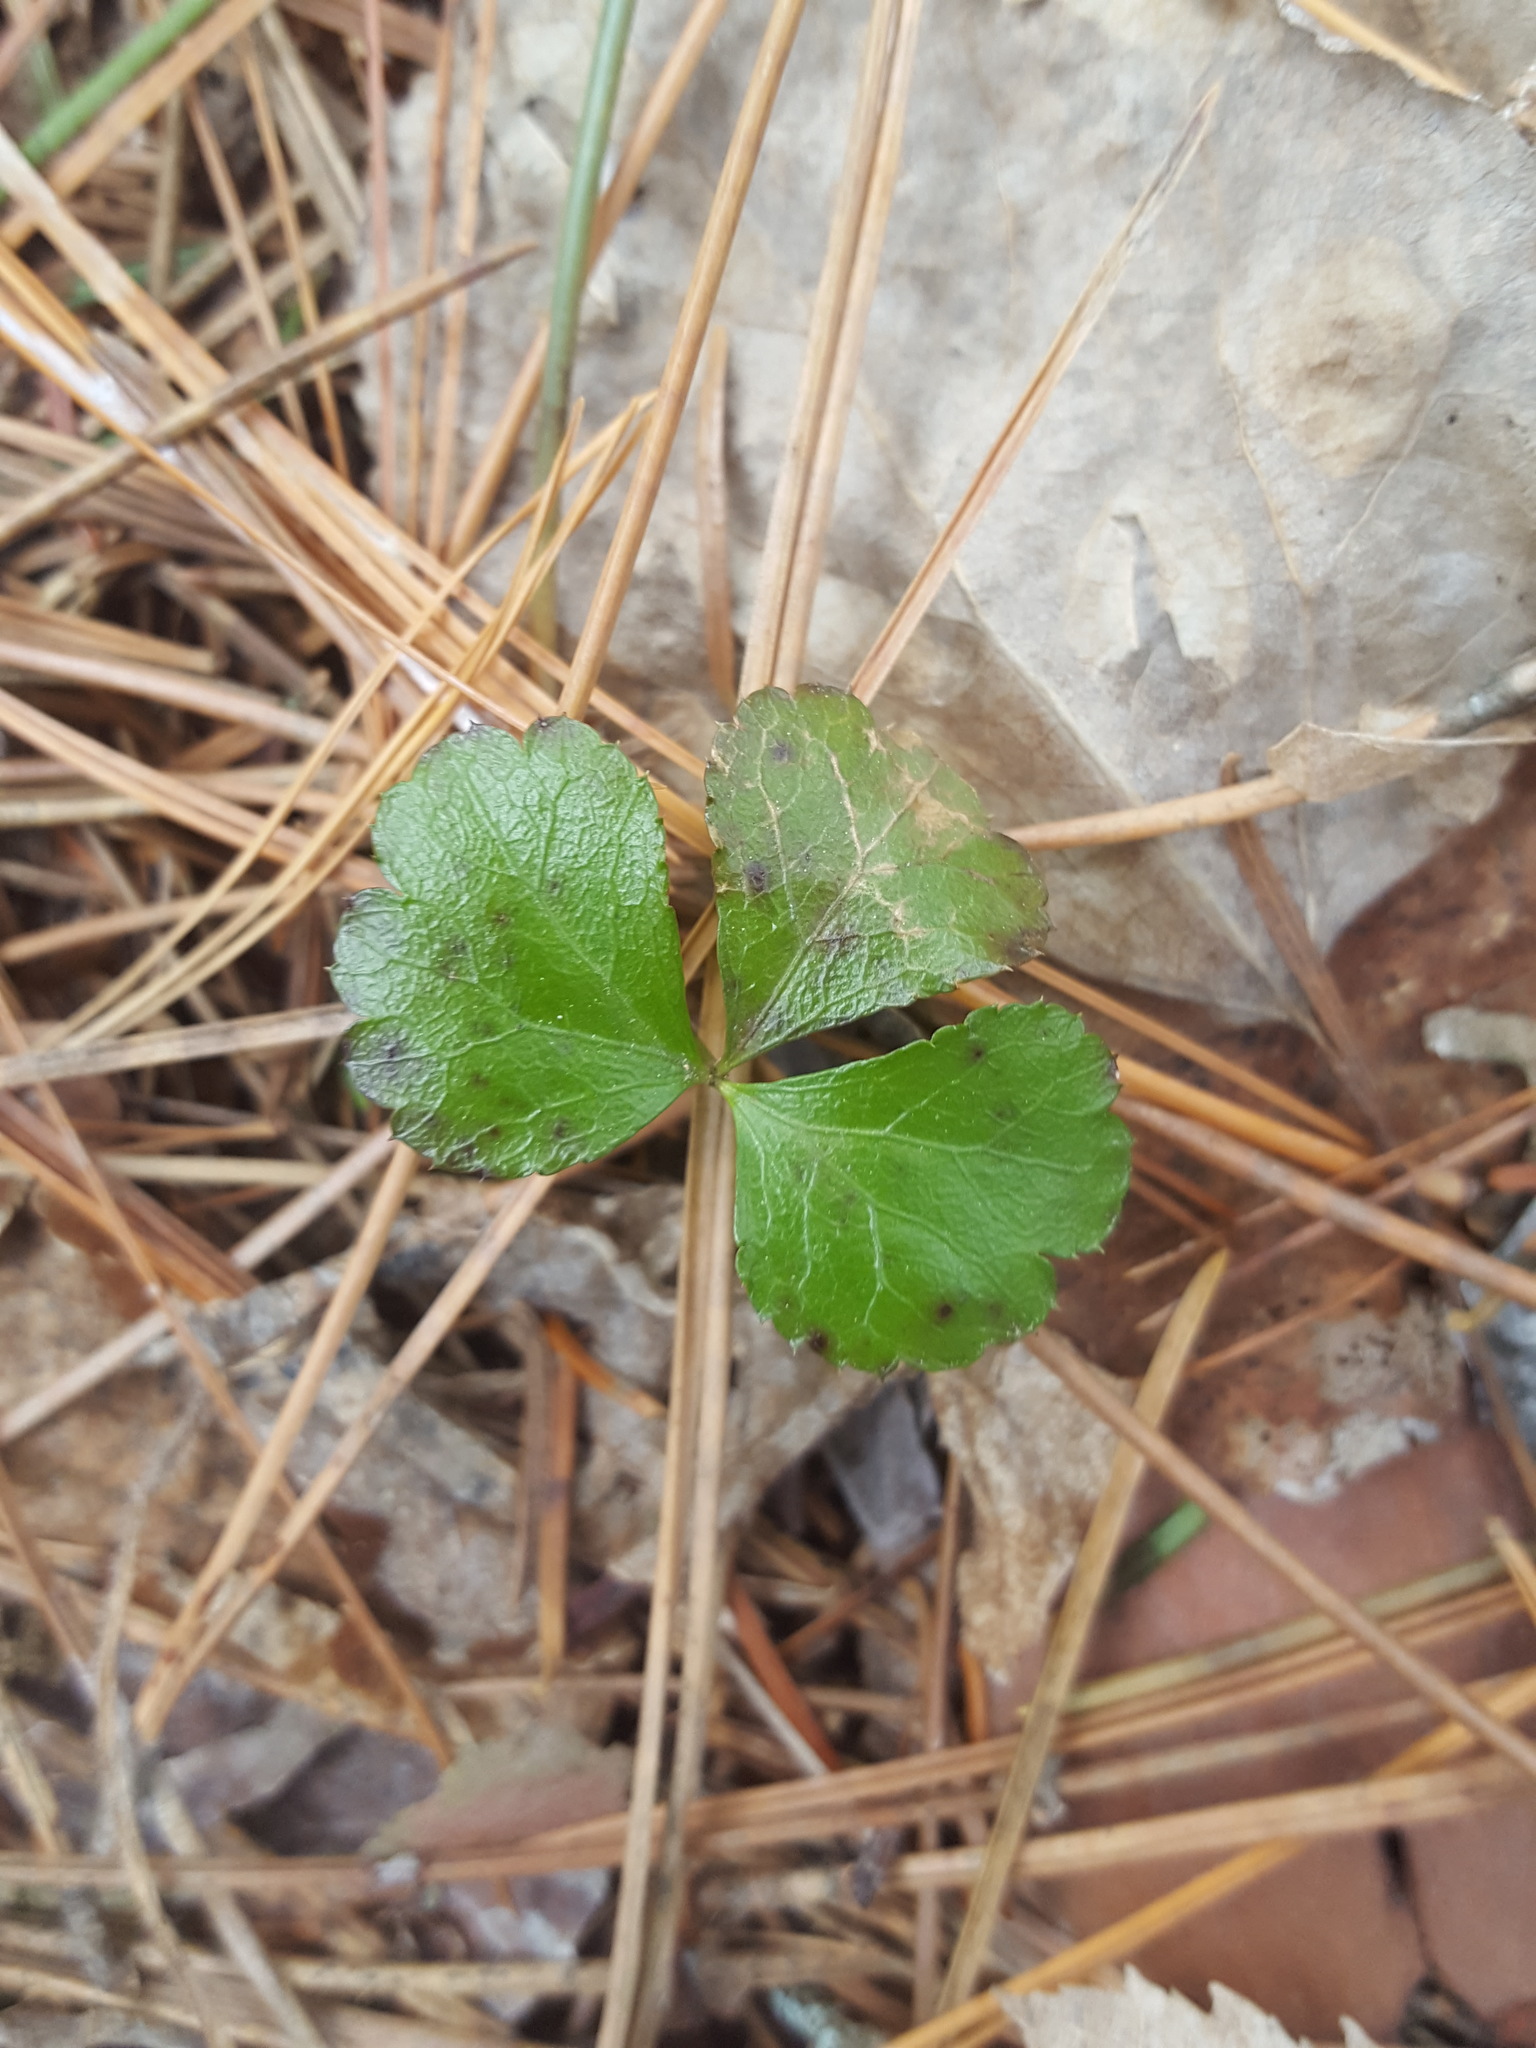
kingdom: Plantae
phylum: Tracheophyta
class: Magnoliopsida
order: Ranunculales
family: Ranunculaceae
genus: Coptis
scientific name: Coptis trifolia
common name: Canker-root
